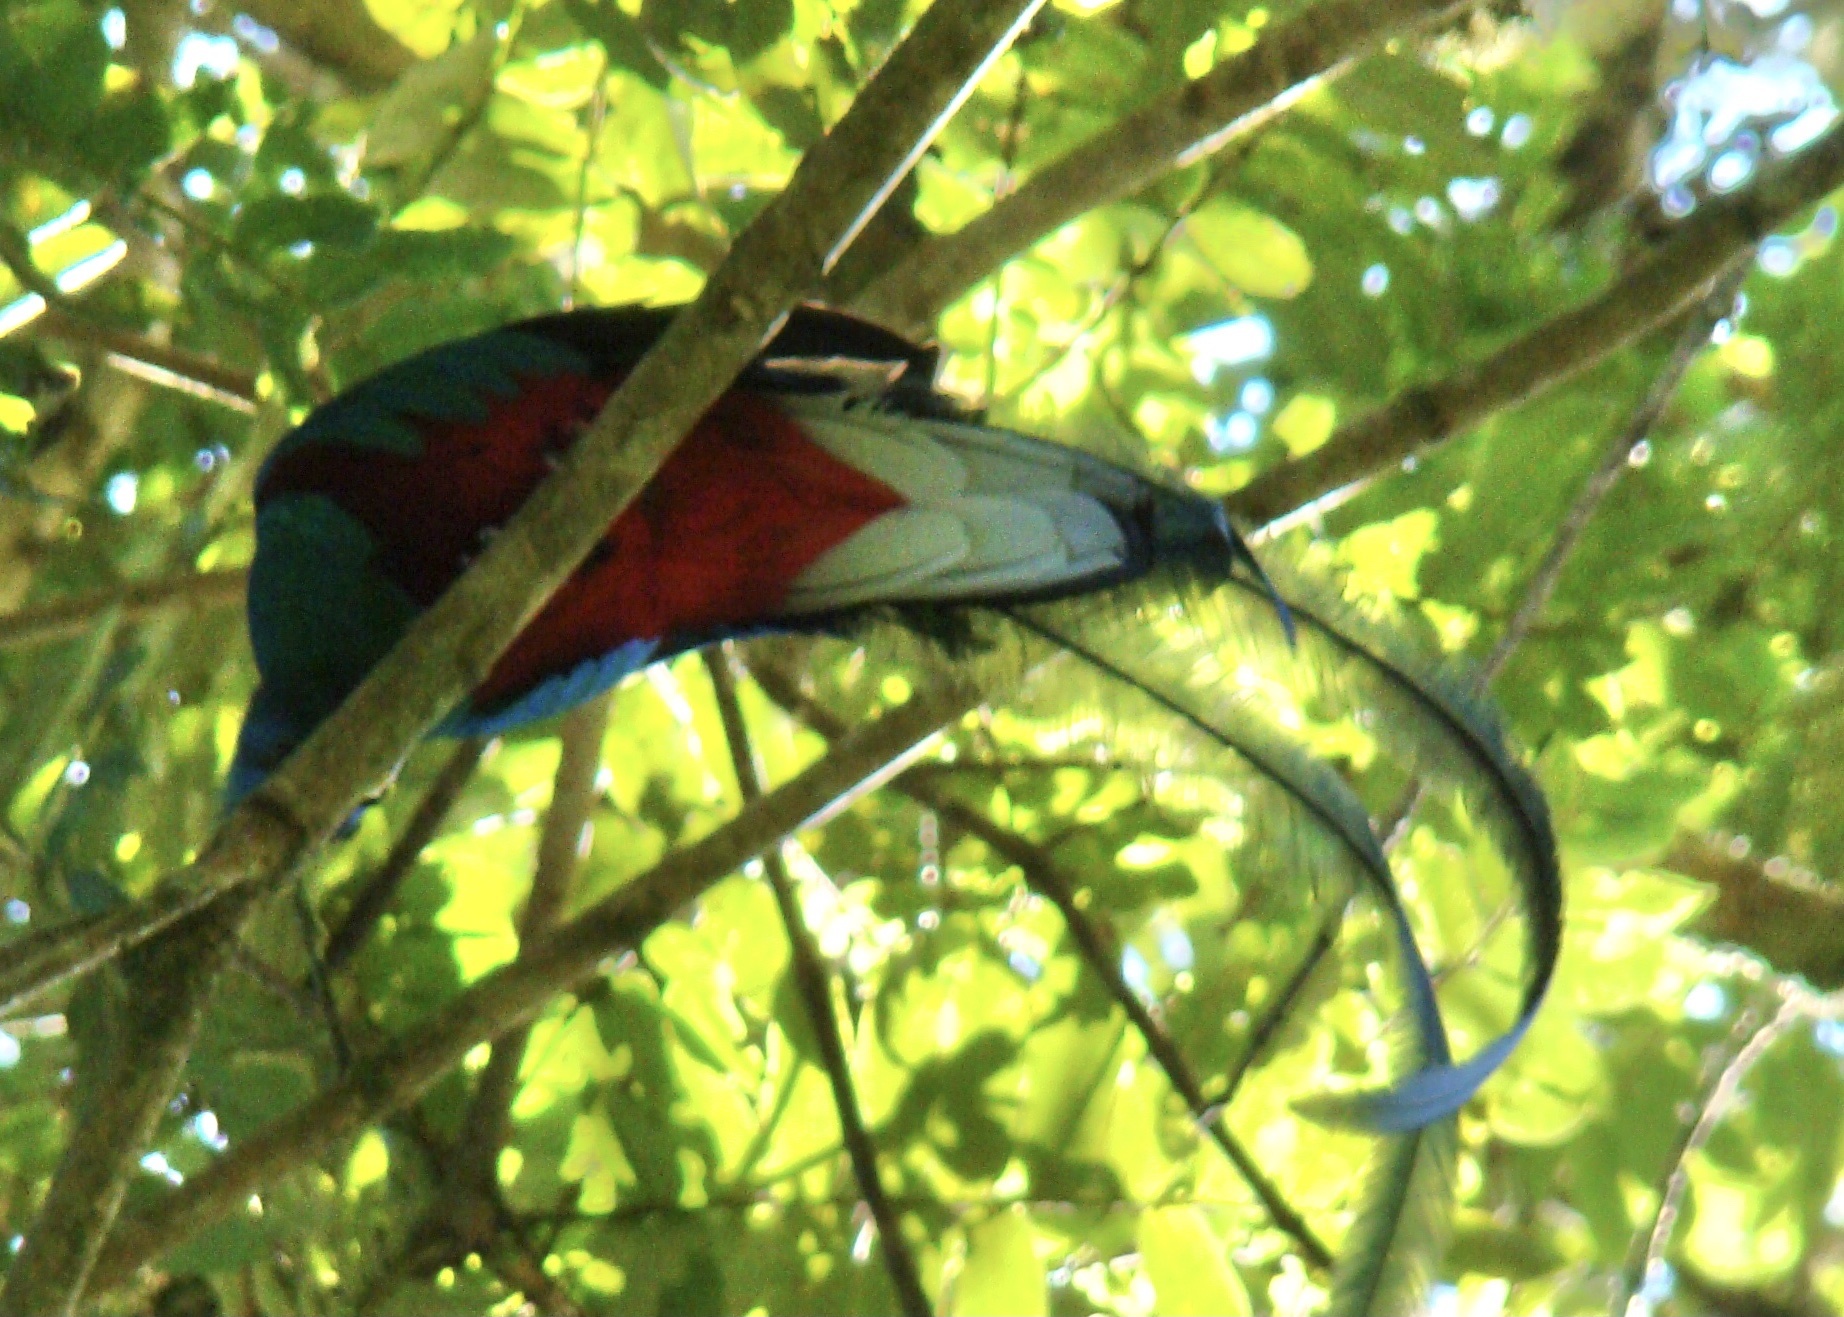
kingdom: Animalia
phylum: Chordata
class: Aves
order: Trogoniformes
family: Trogonidae
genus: Pharomachrus
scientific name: Pharomachrus mocinno
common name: Resplendent quetzal
